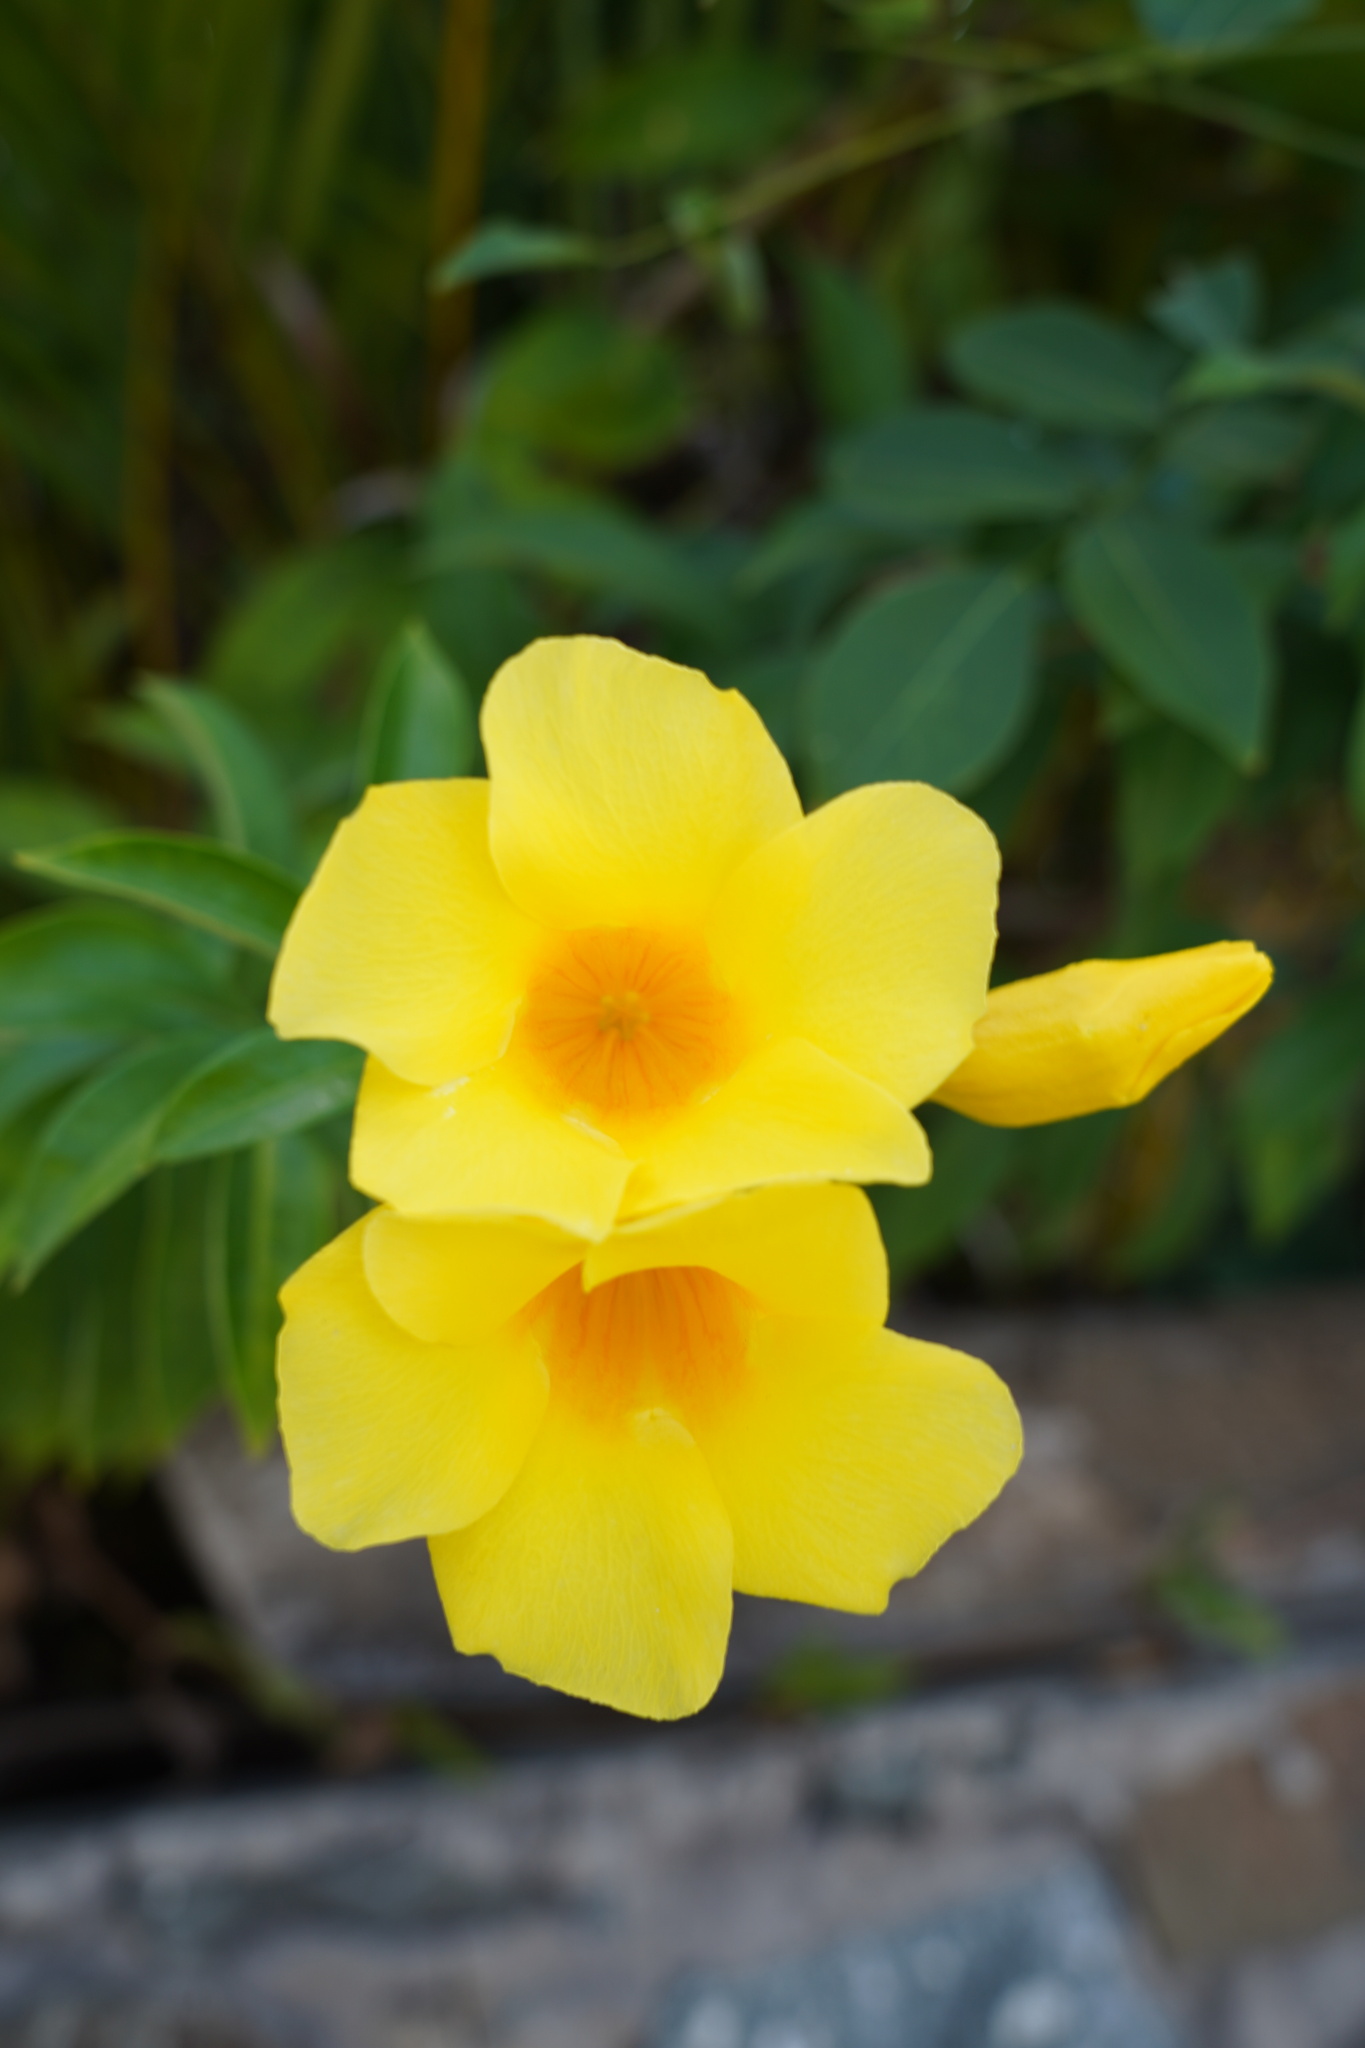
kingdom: Plantae
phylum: Tracheophyta
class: Magnoliopsida
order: Gentianales
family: Apocynaceae
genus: Allamanda
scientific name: Allamanda cathartica
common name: Golden trumpet
